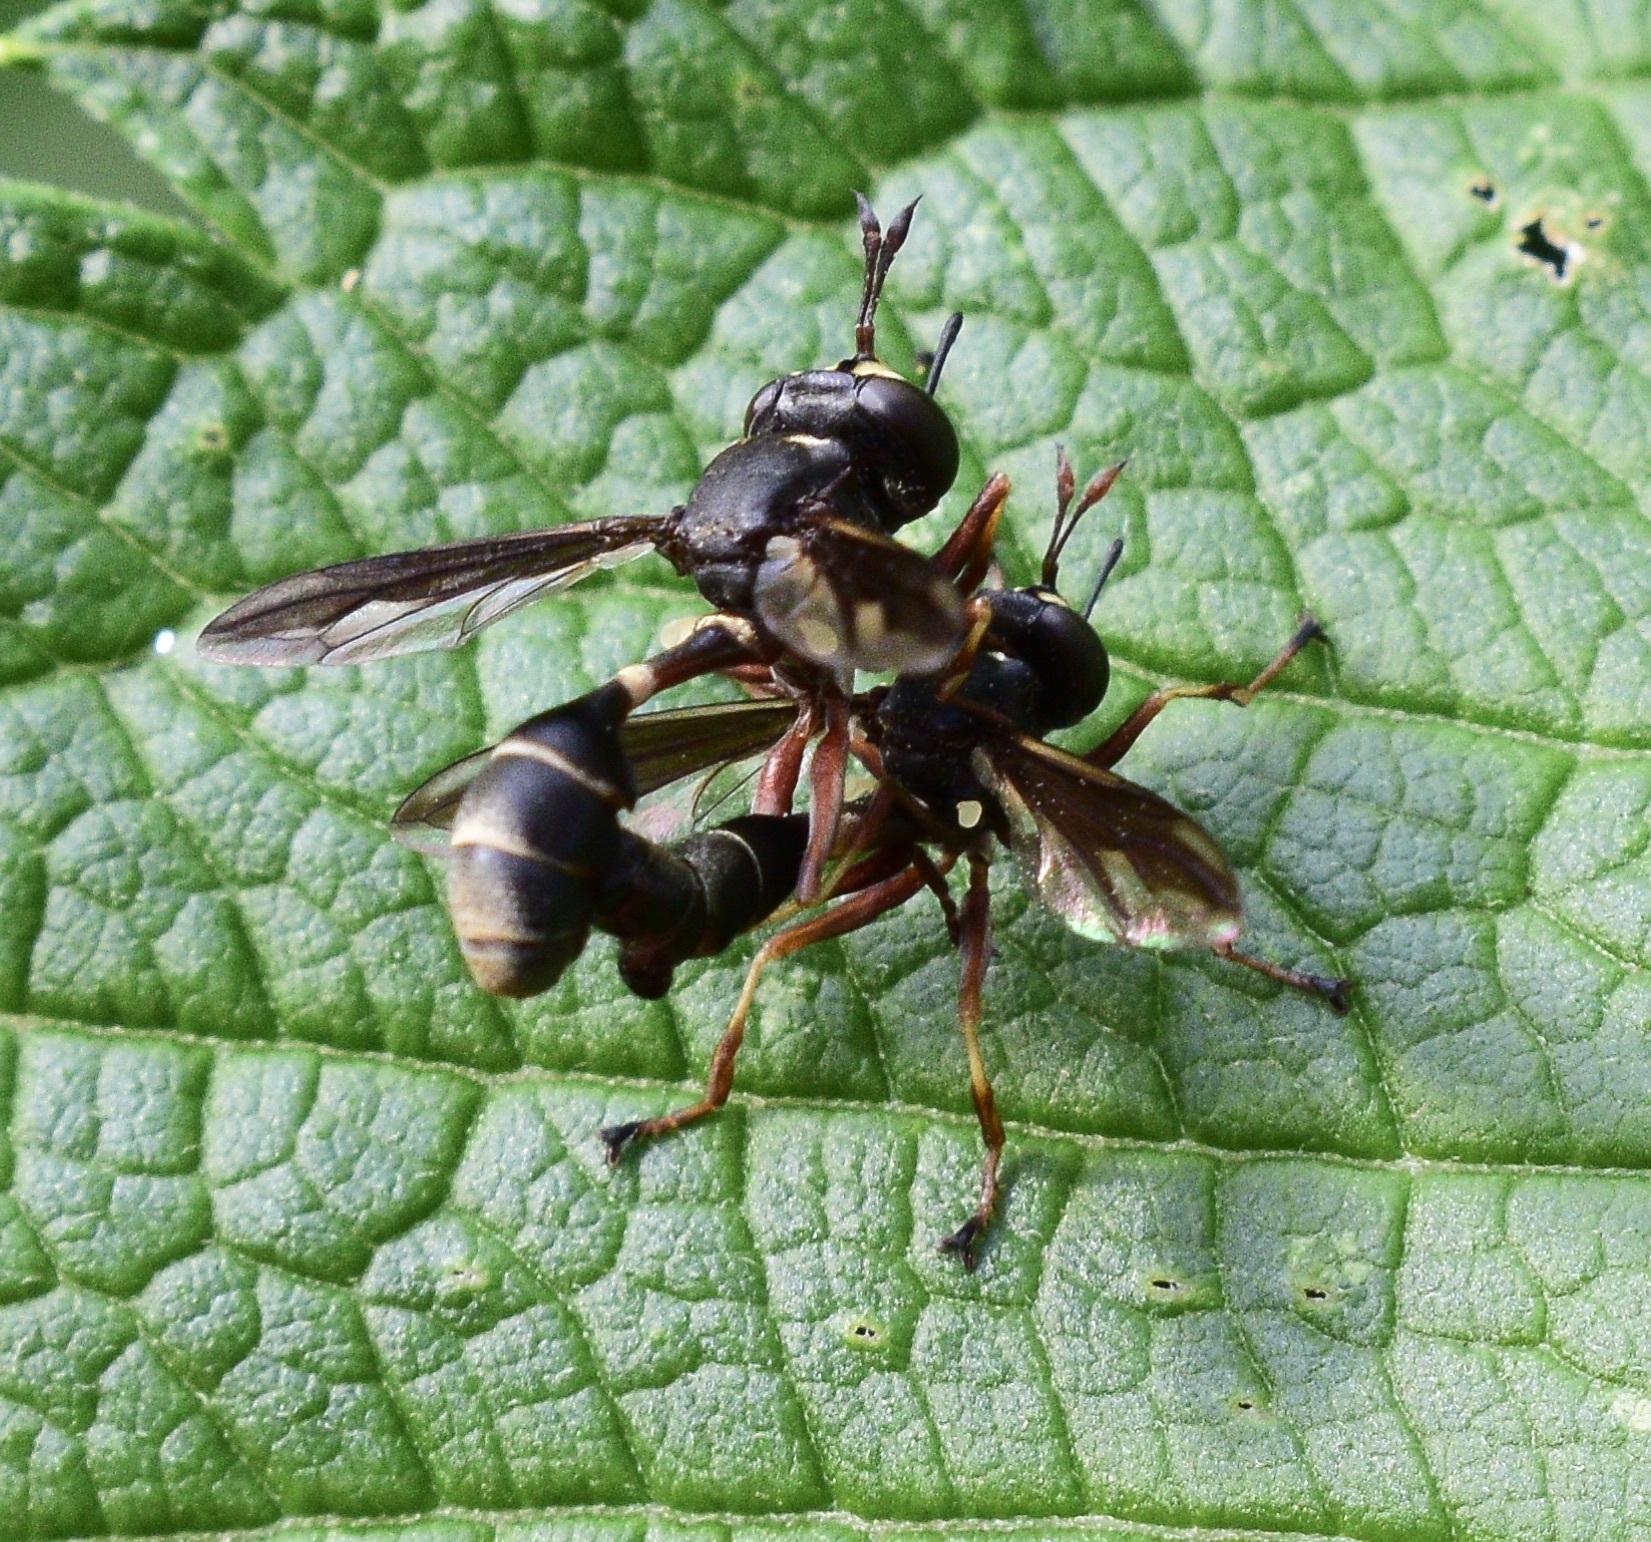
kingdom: Animalia
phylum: Arthropoda
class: Insecta
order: Diptera
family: Conopidae
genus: Physocephala
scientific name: Physocephala furcillata
